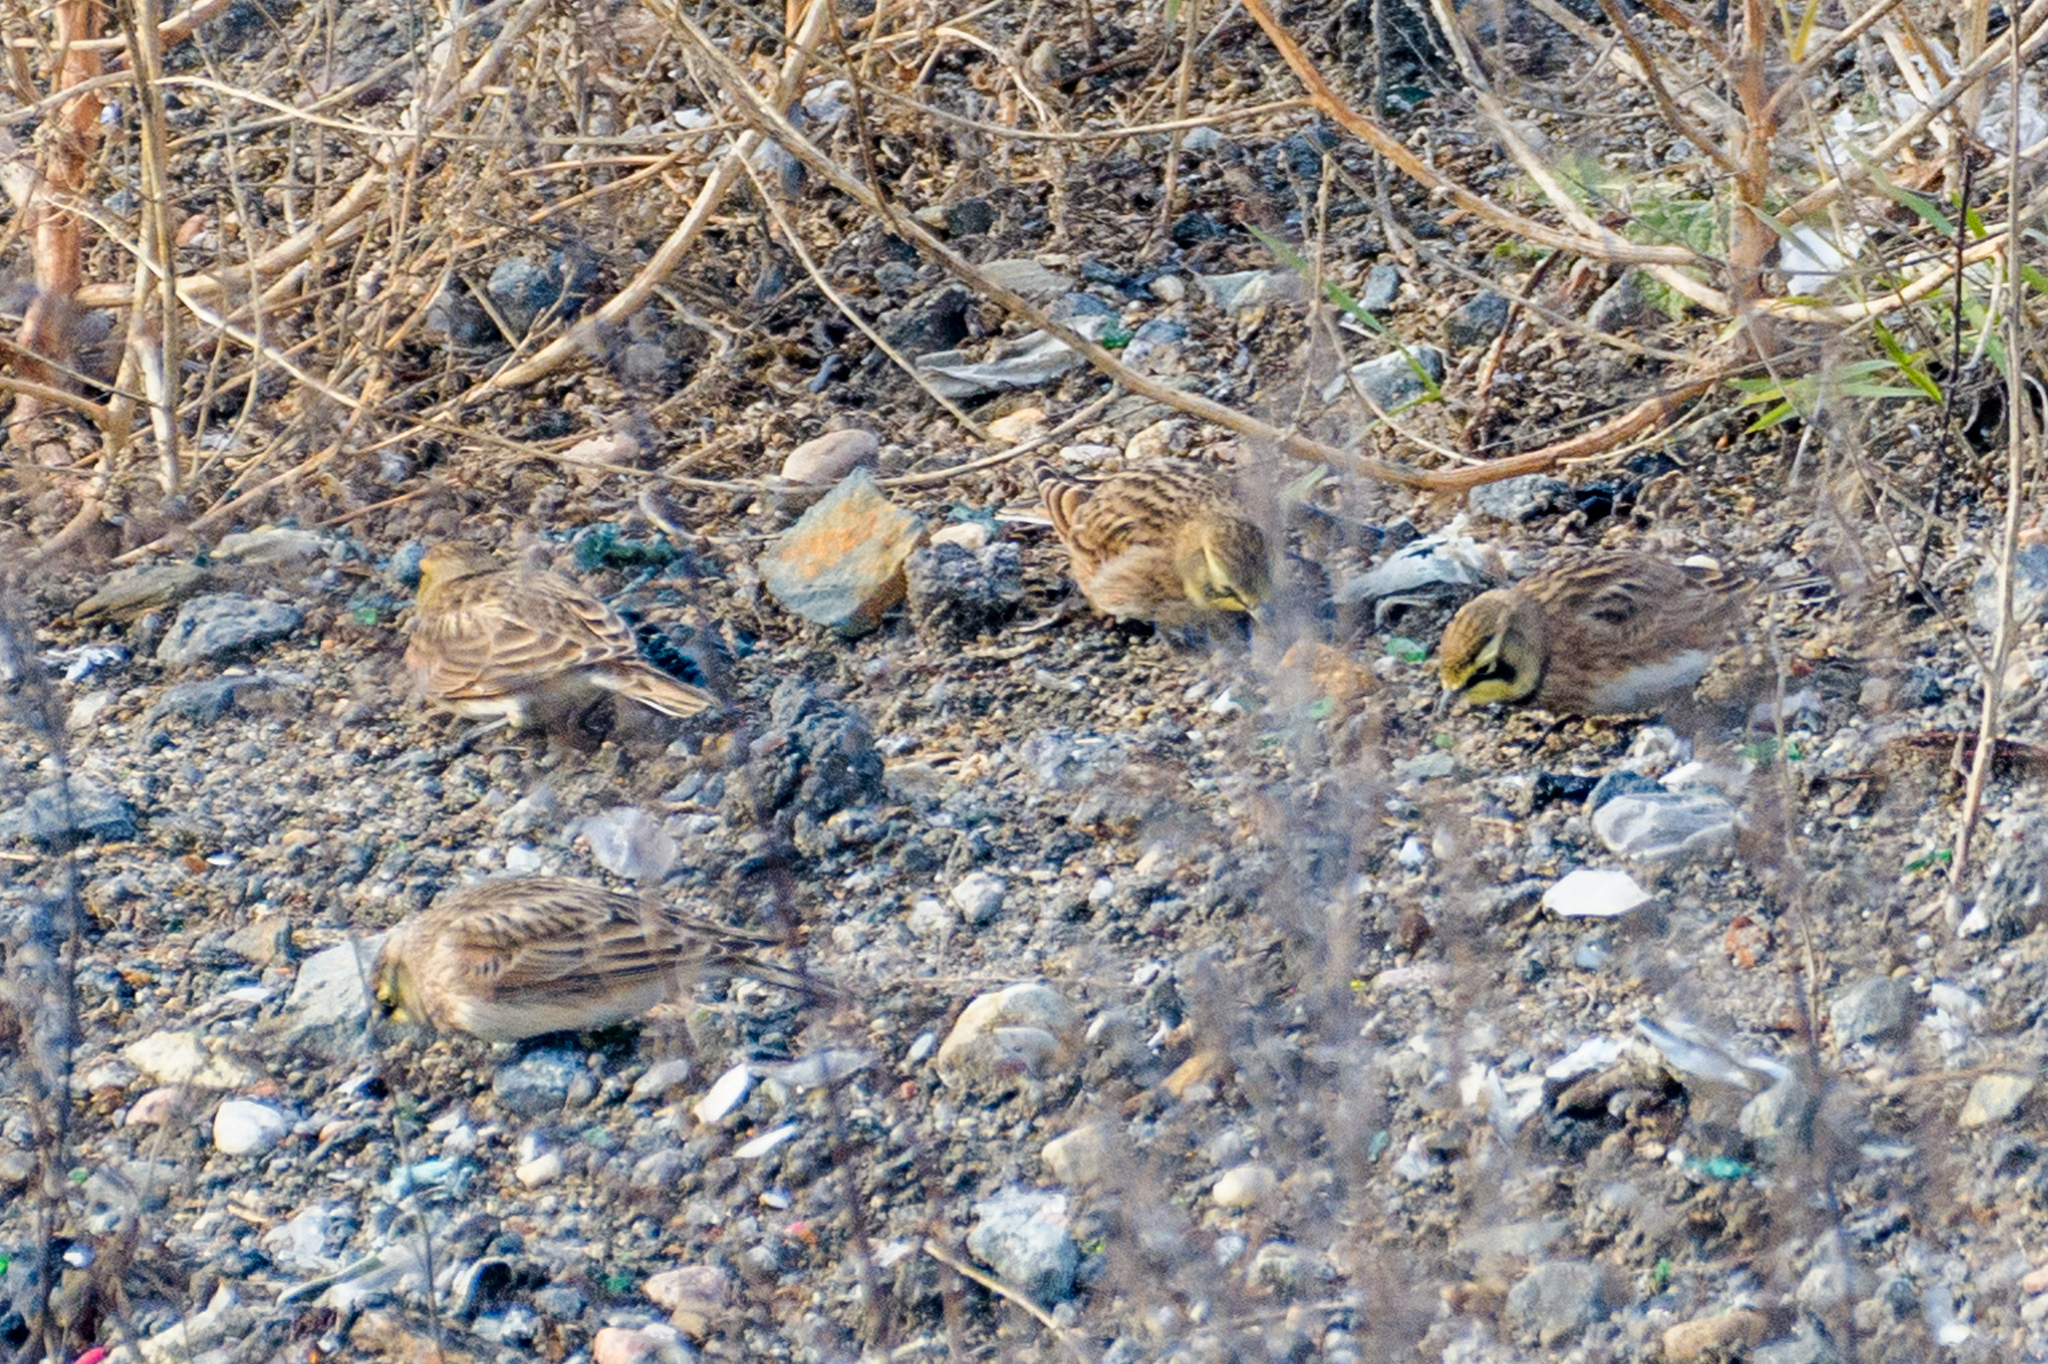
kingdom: Animalia
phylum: Chordata
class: Aves
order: Passeriformes
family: Alaudidae
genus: Eremophila
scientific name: Eremophila alpestris
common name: Horned lark
